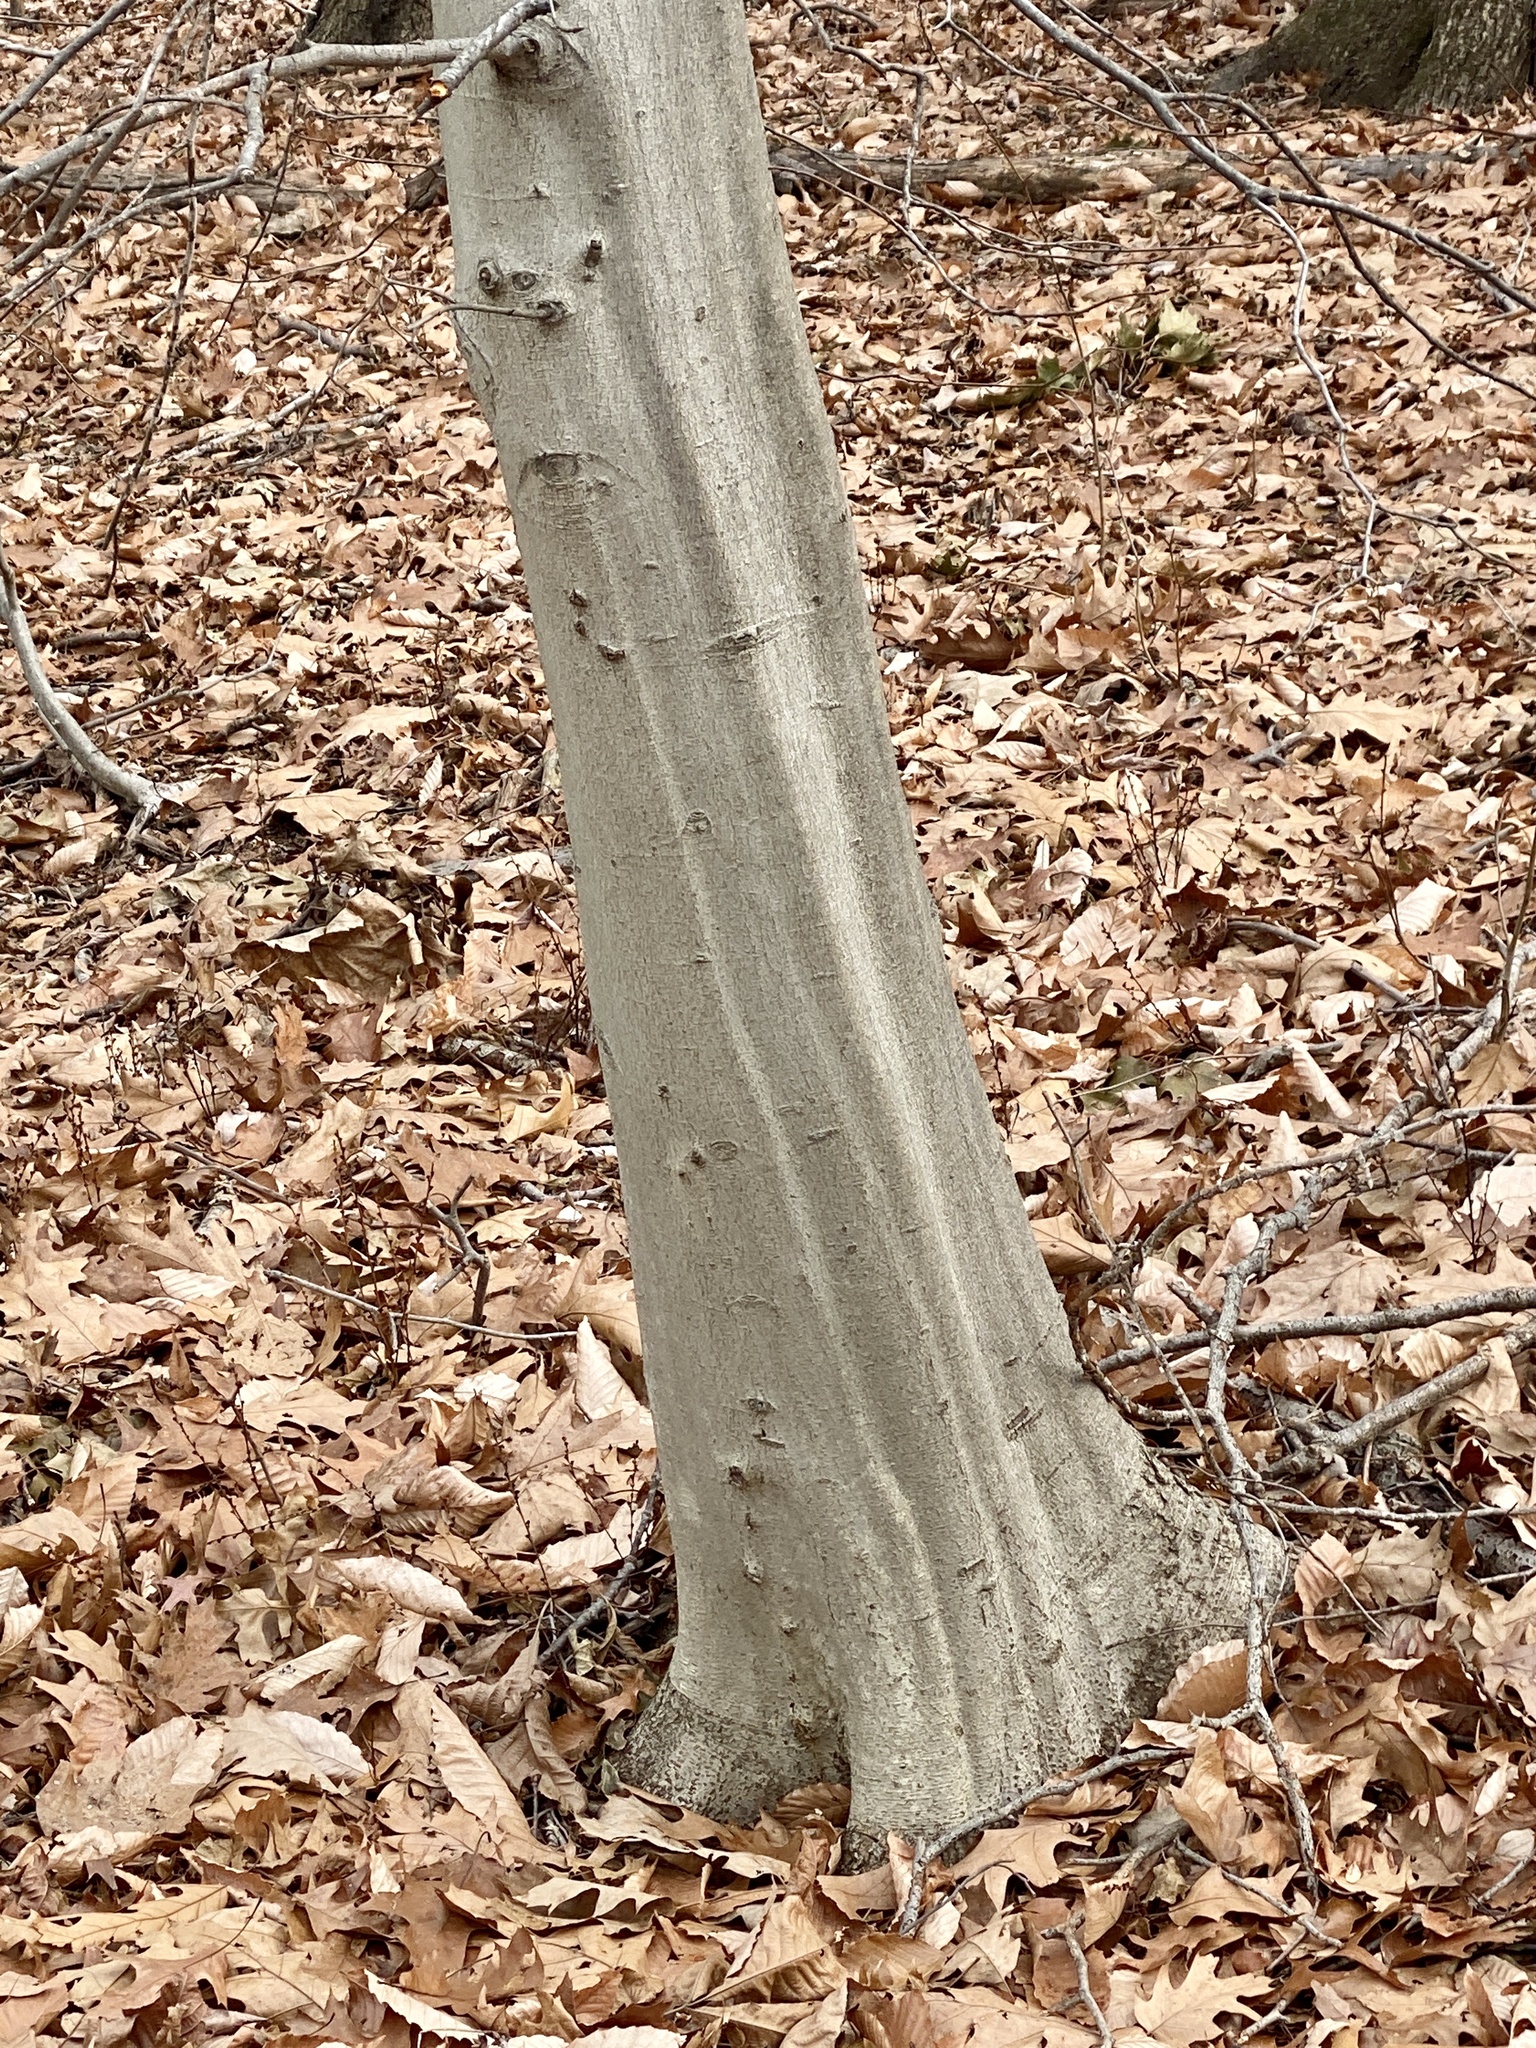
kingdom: Plantae
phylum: Tracheophyta
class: Magnoliopsida
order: Fagales
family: Fagaceae
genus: Fagus
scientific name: Fagus grandifolia
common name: American beech
